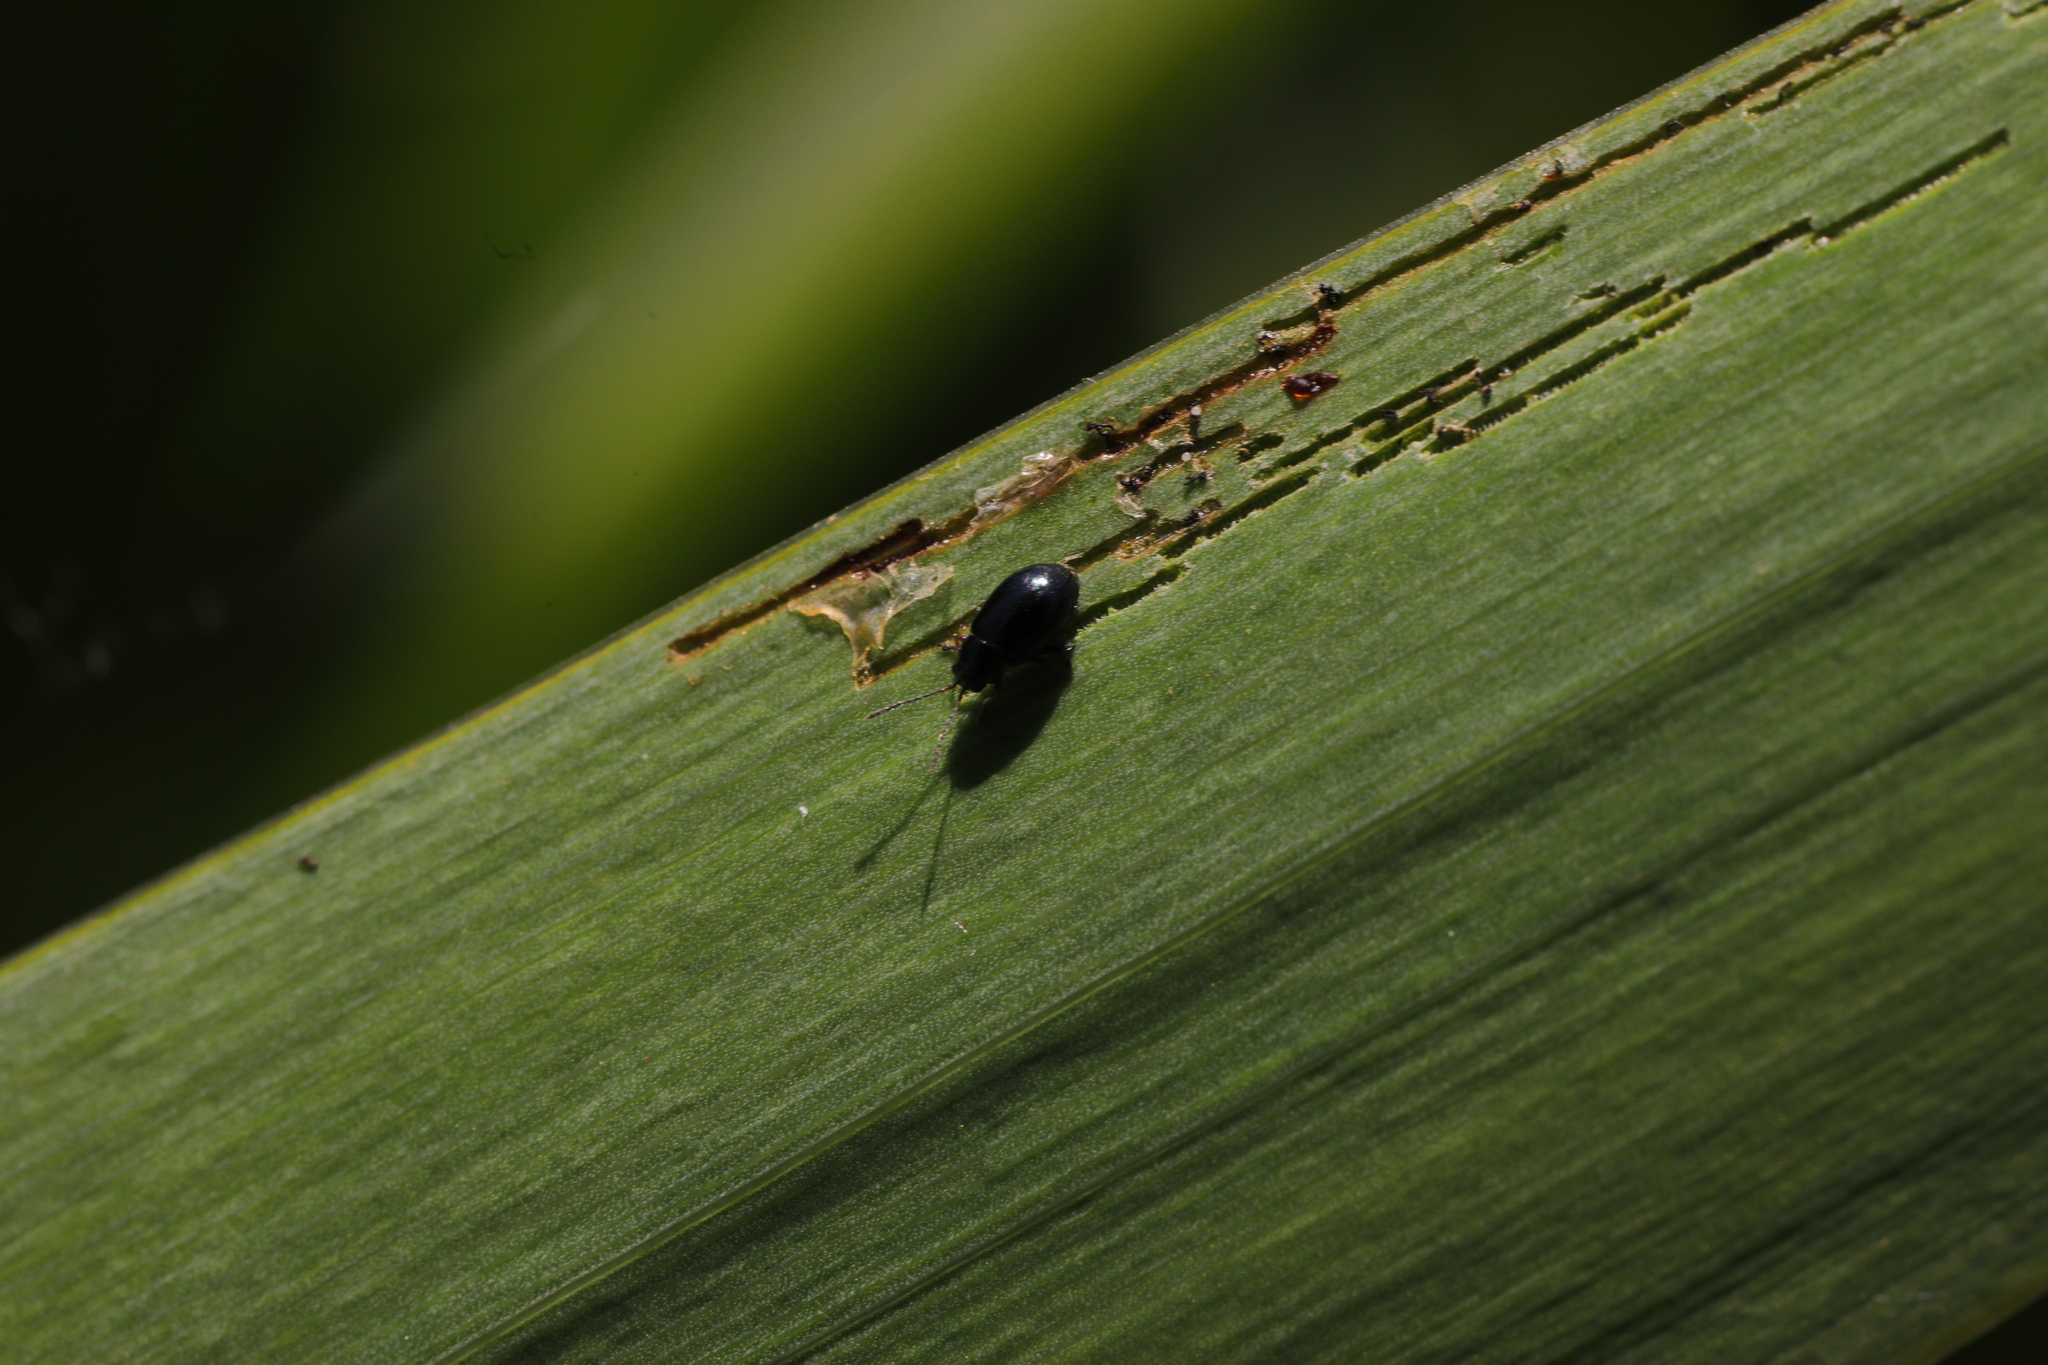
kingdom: Animalia
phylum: Arthropoda
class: Insecta
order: Coleoptera
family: Chrysomelidae
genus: Aphthona
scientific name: Aphthona nonstriata
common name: Iris flea beetle
